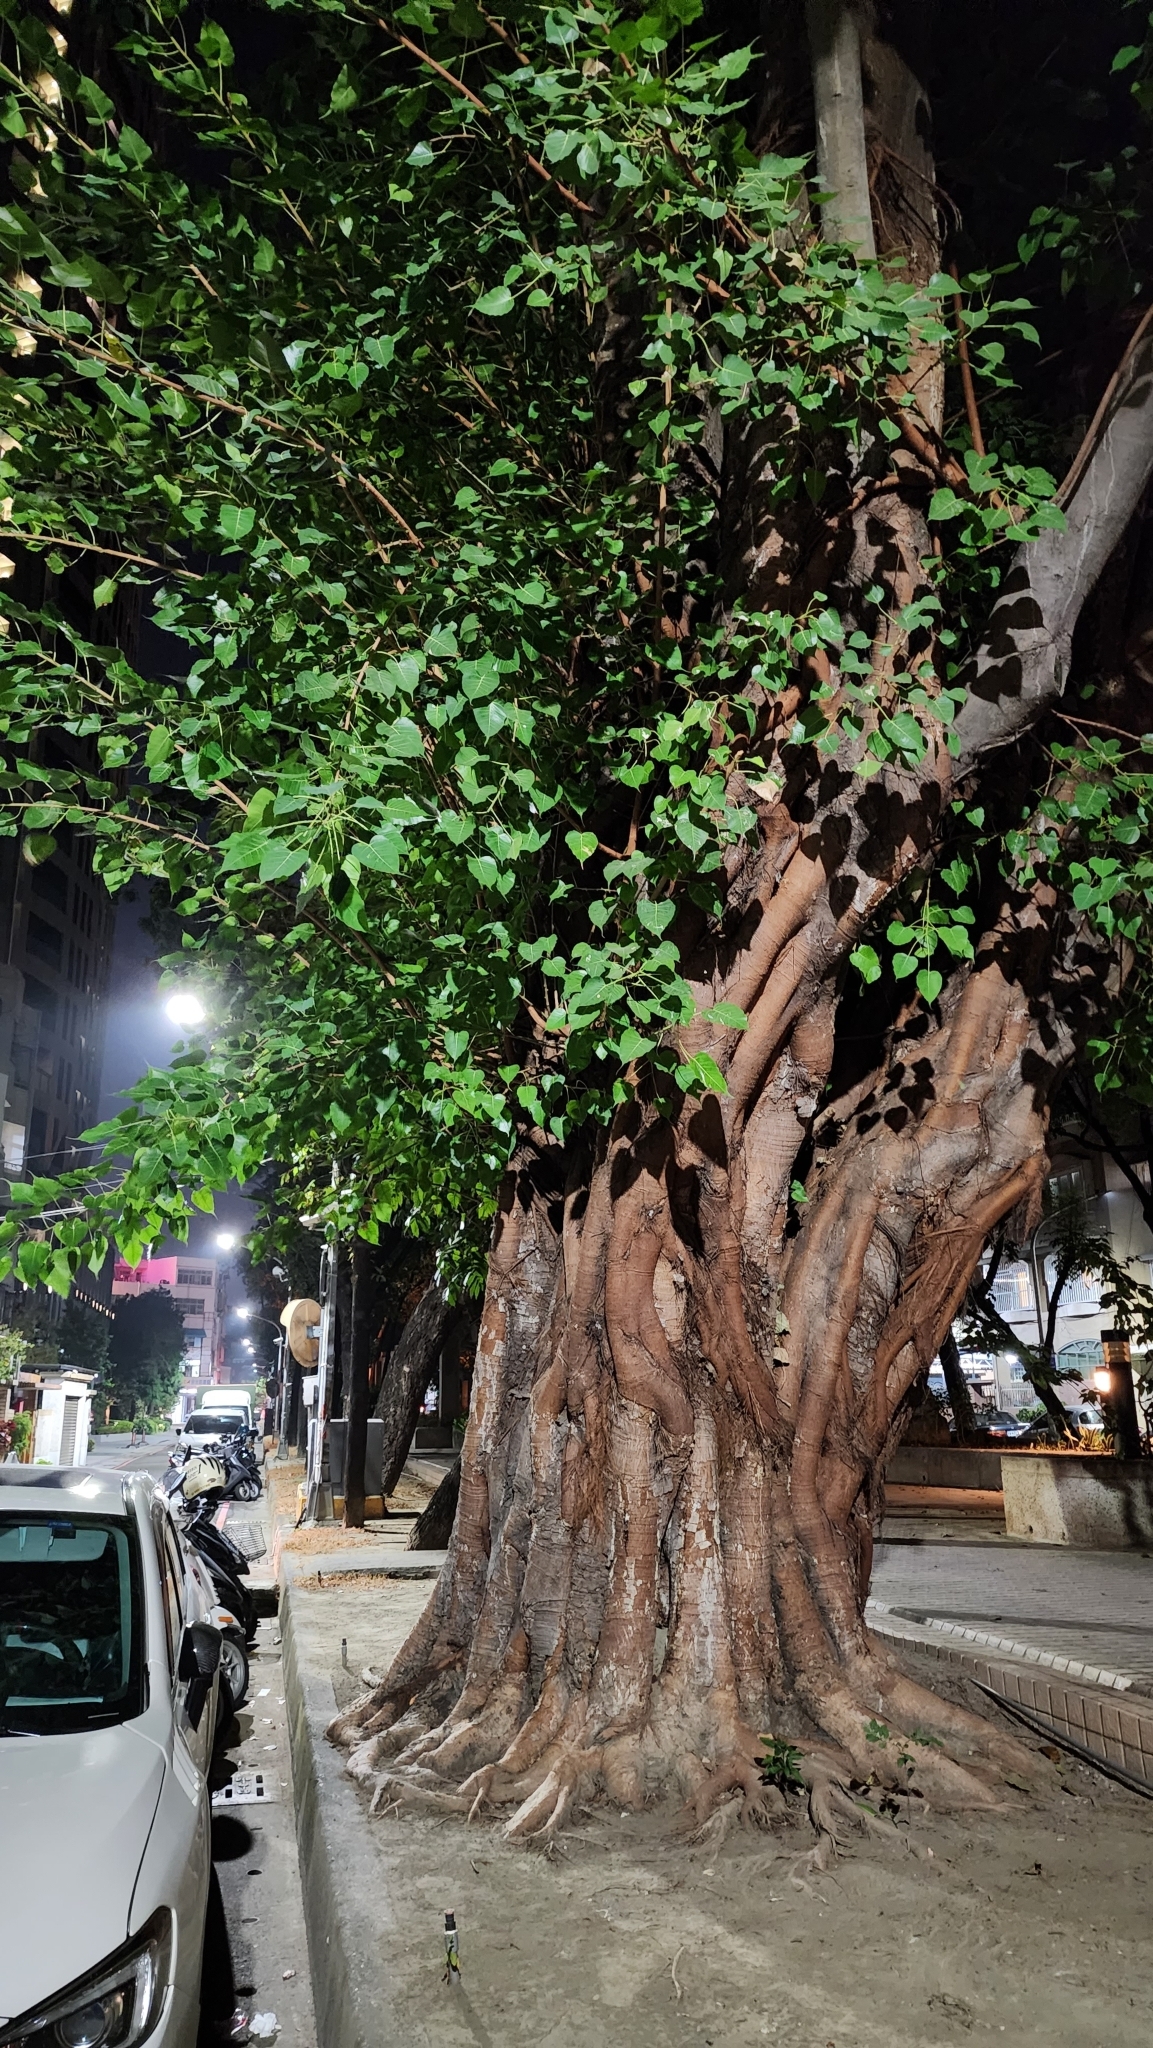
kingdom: Plantae
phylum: Tracheophyta
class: Magnoliopsida
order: Rosales
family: Moraceae
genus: Ficus
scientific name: Ficus religiosa
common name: Bodhi tree
